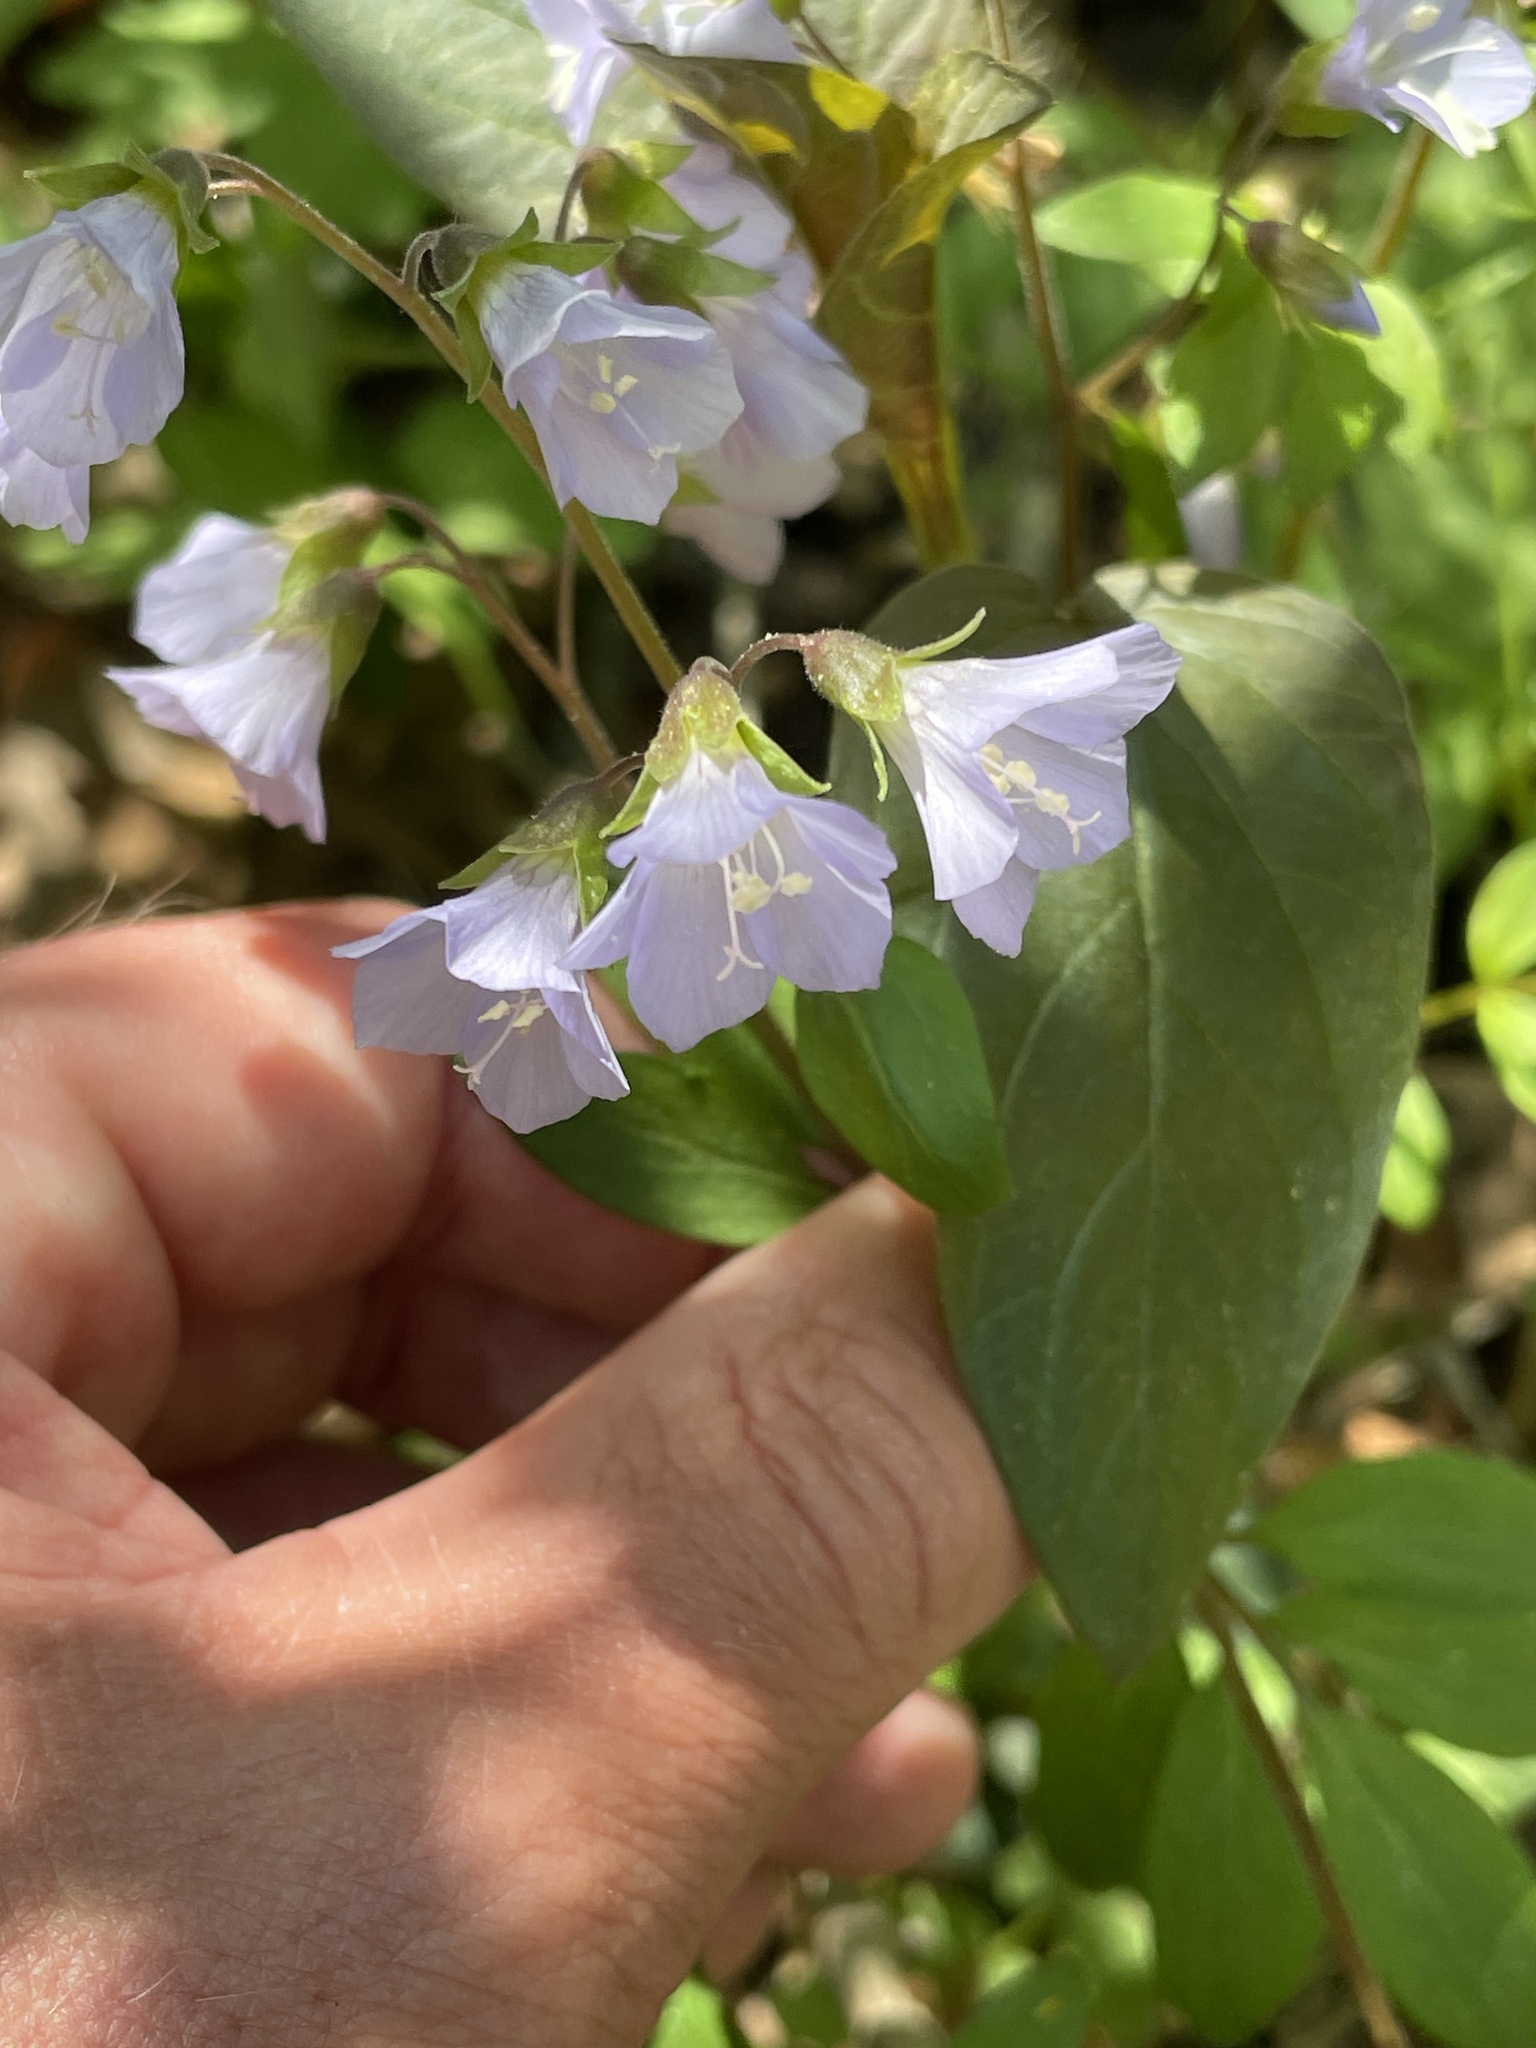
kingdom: Plantae
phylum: Tracheophyta
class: Magnoliopsida
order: Ericales
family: Polemoniaceae
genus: Polemonium
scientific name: Polemonium reptans
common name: Creeping jacob's-ladder
